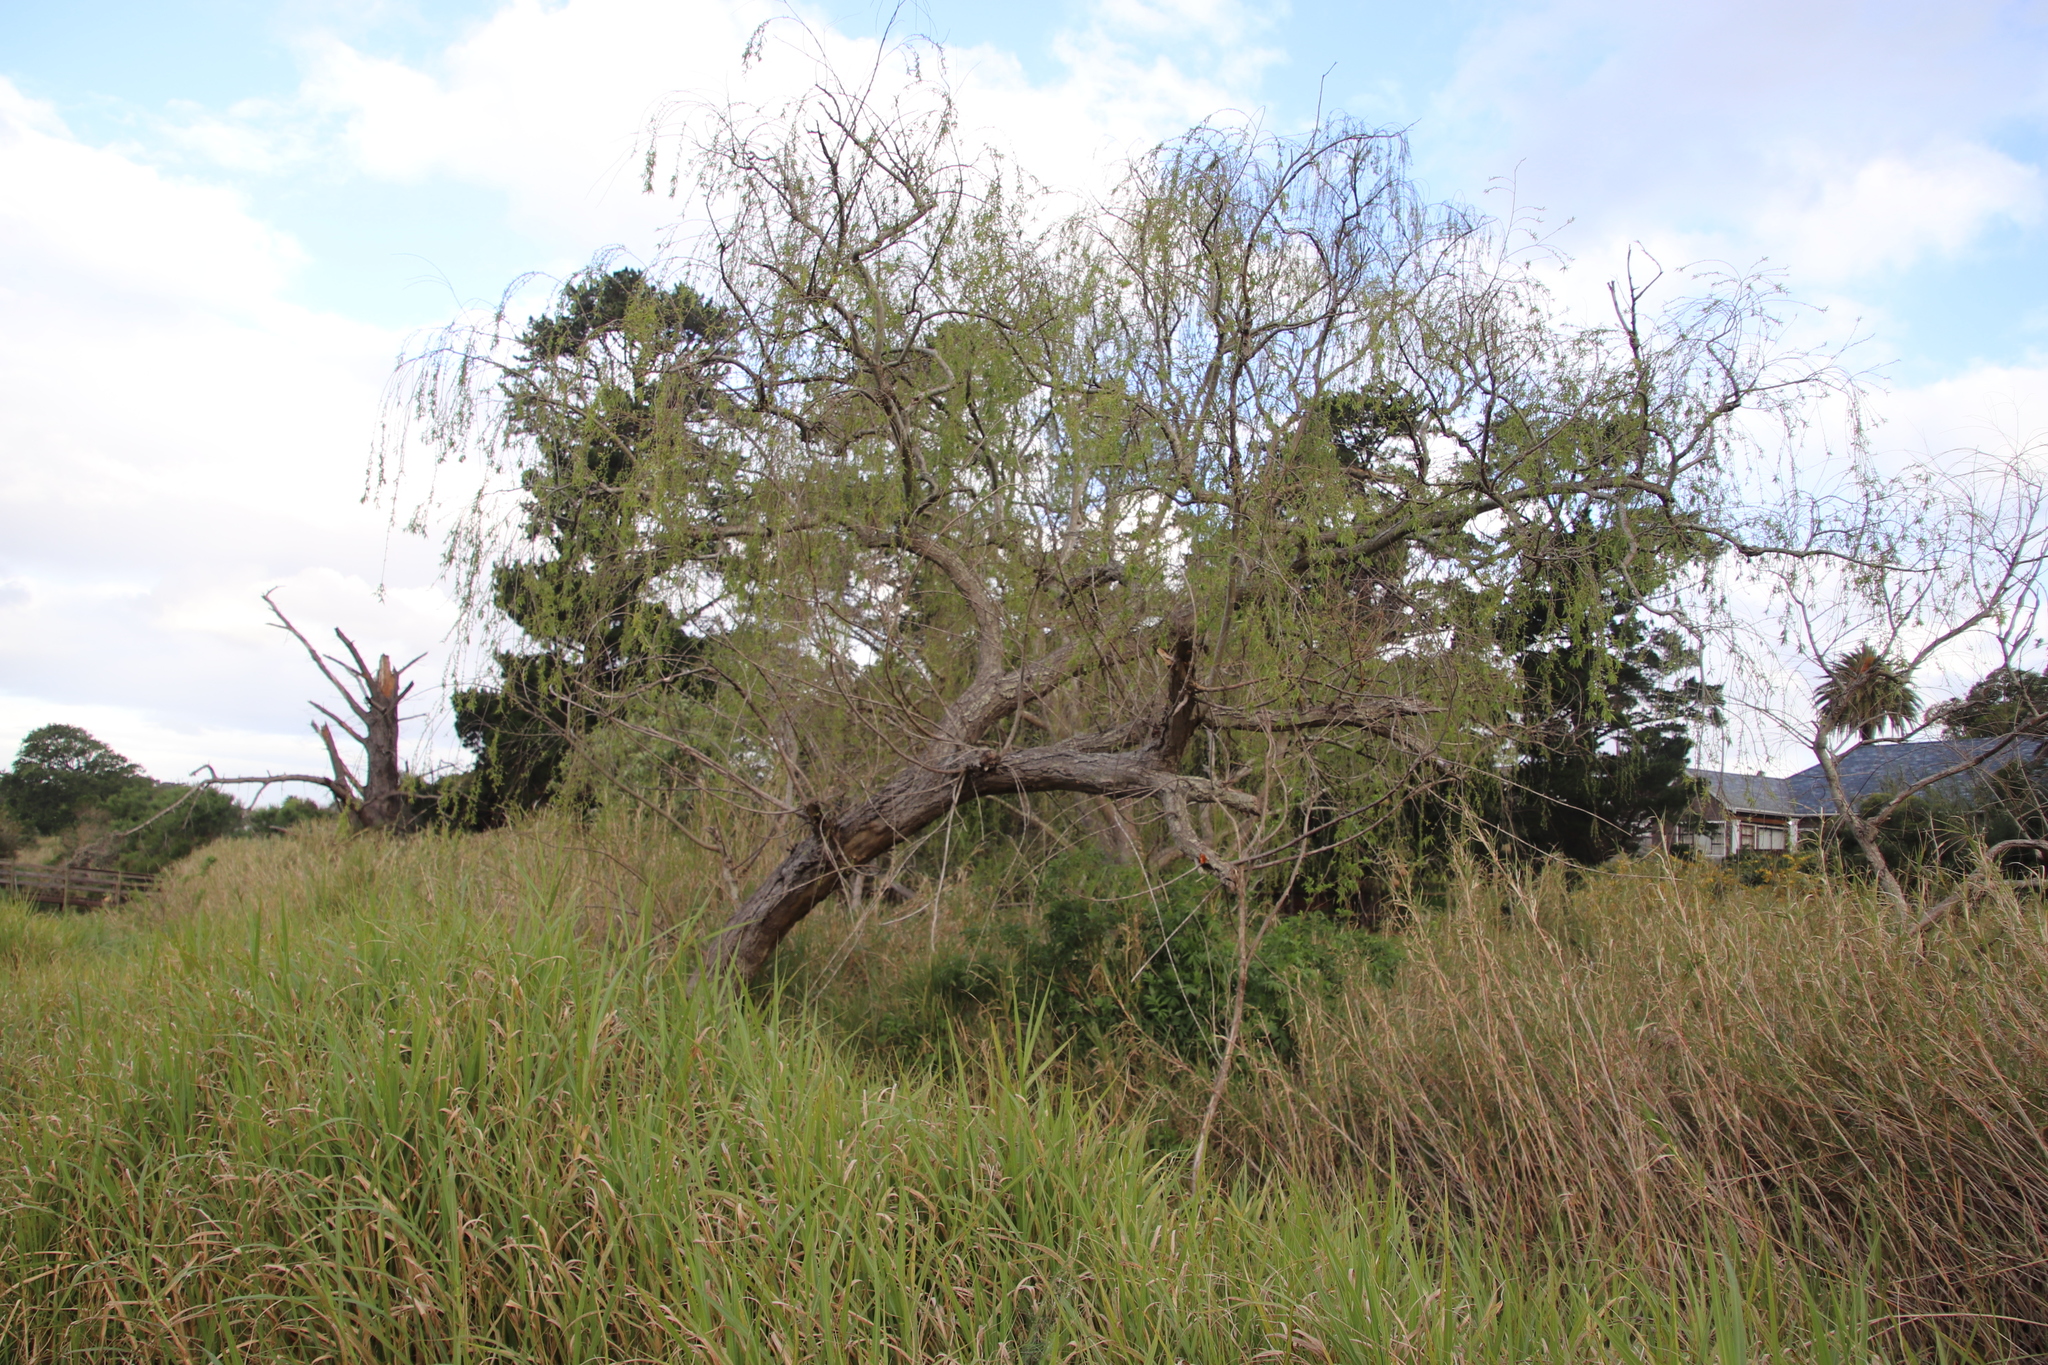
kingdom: Plantae
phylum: Tracheophyta
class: Magnoliopsida
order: Malpighiales
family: Salicaceae
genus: Salix
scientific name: Salix babylonica
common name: Weeping willow
